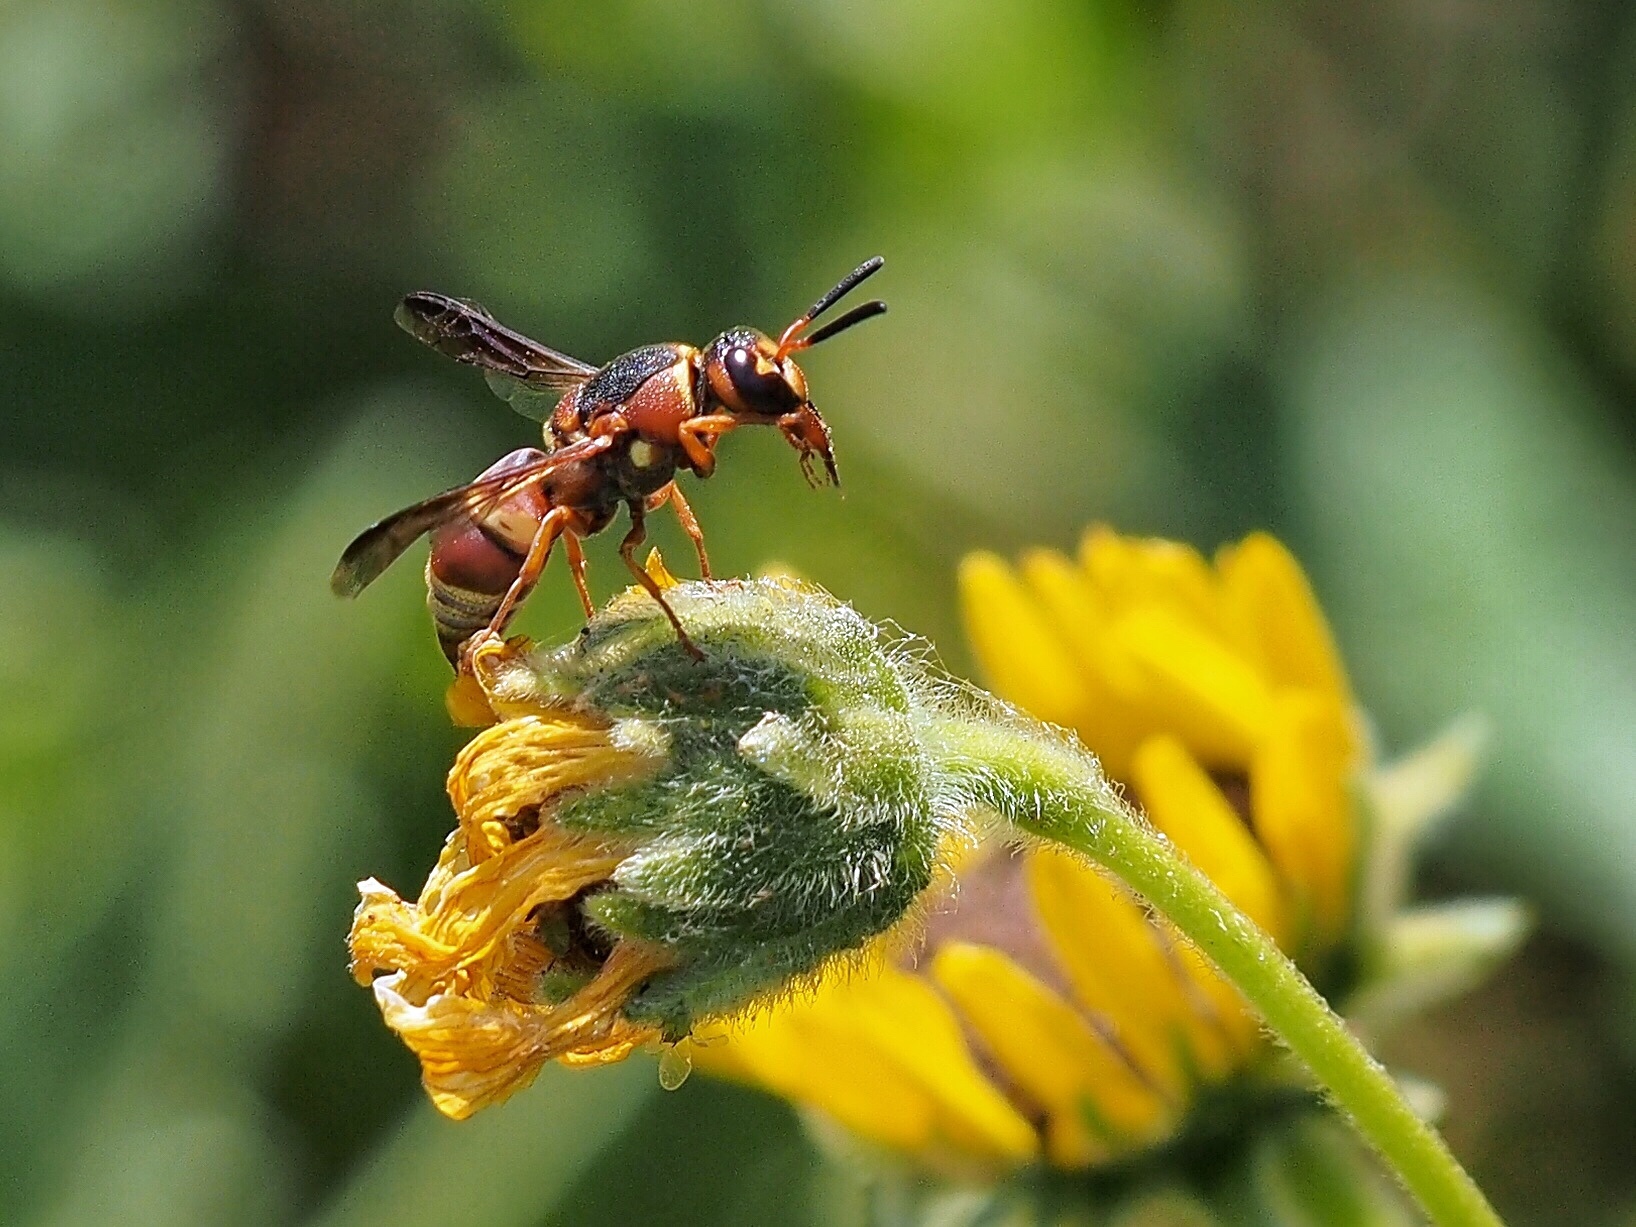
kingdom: Animalia
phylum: Arthropoda
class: Insecta
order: Hymenoptera
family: Eumenidae
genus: Euodynerus
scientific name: Euodynerus hidalgo
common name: Wasp
